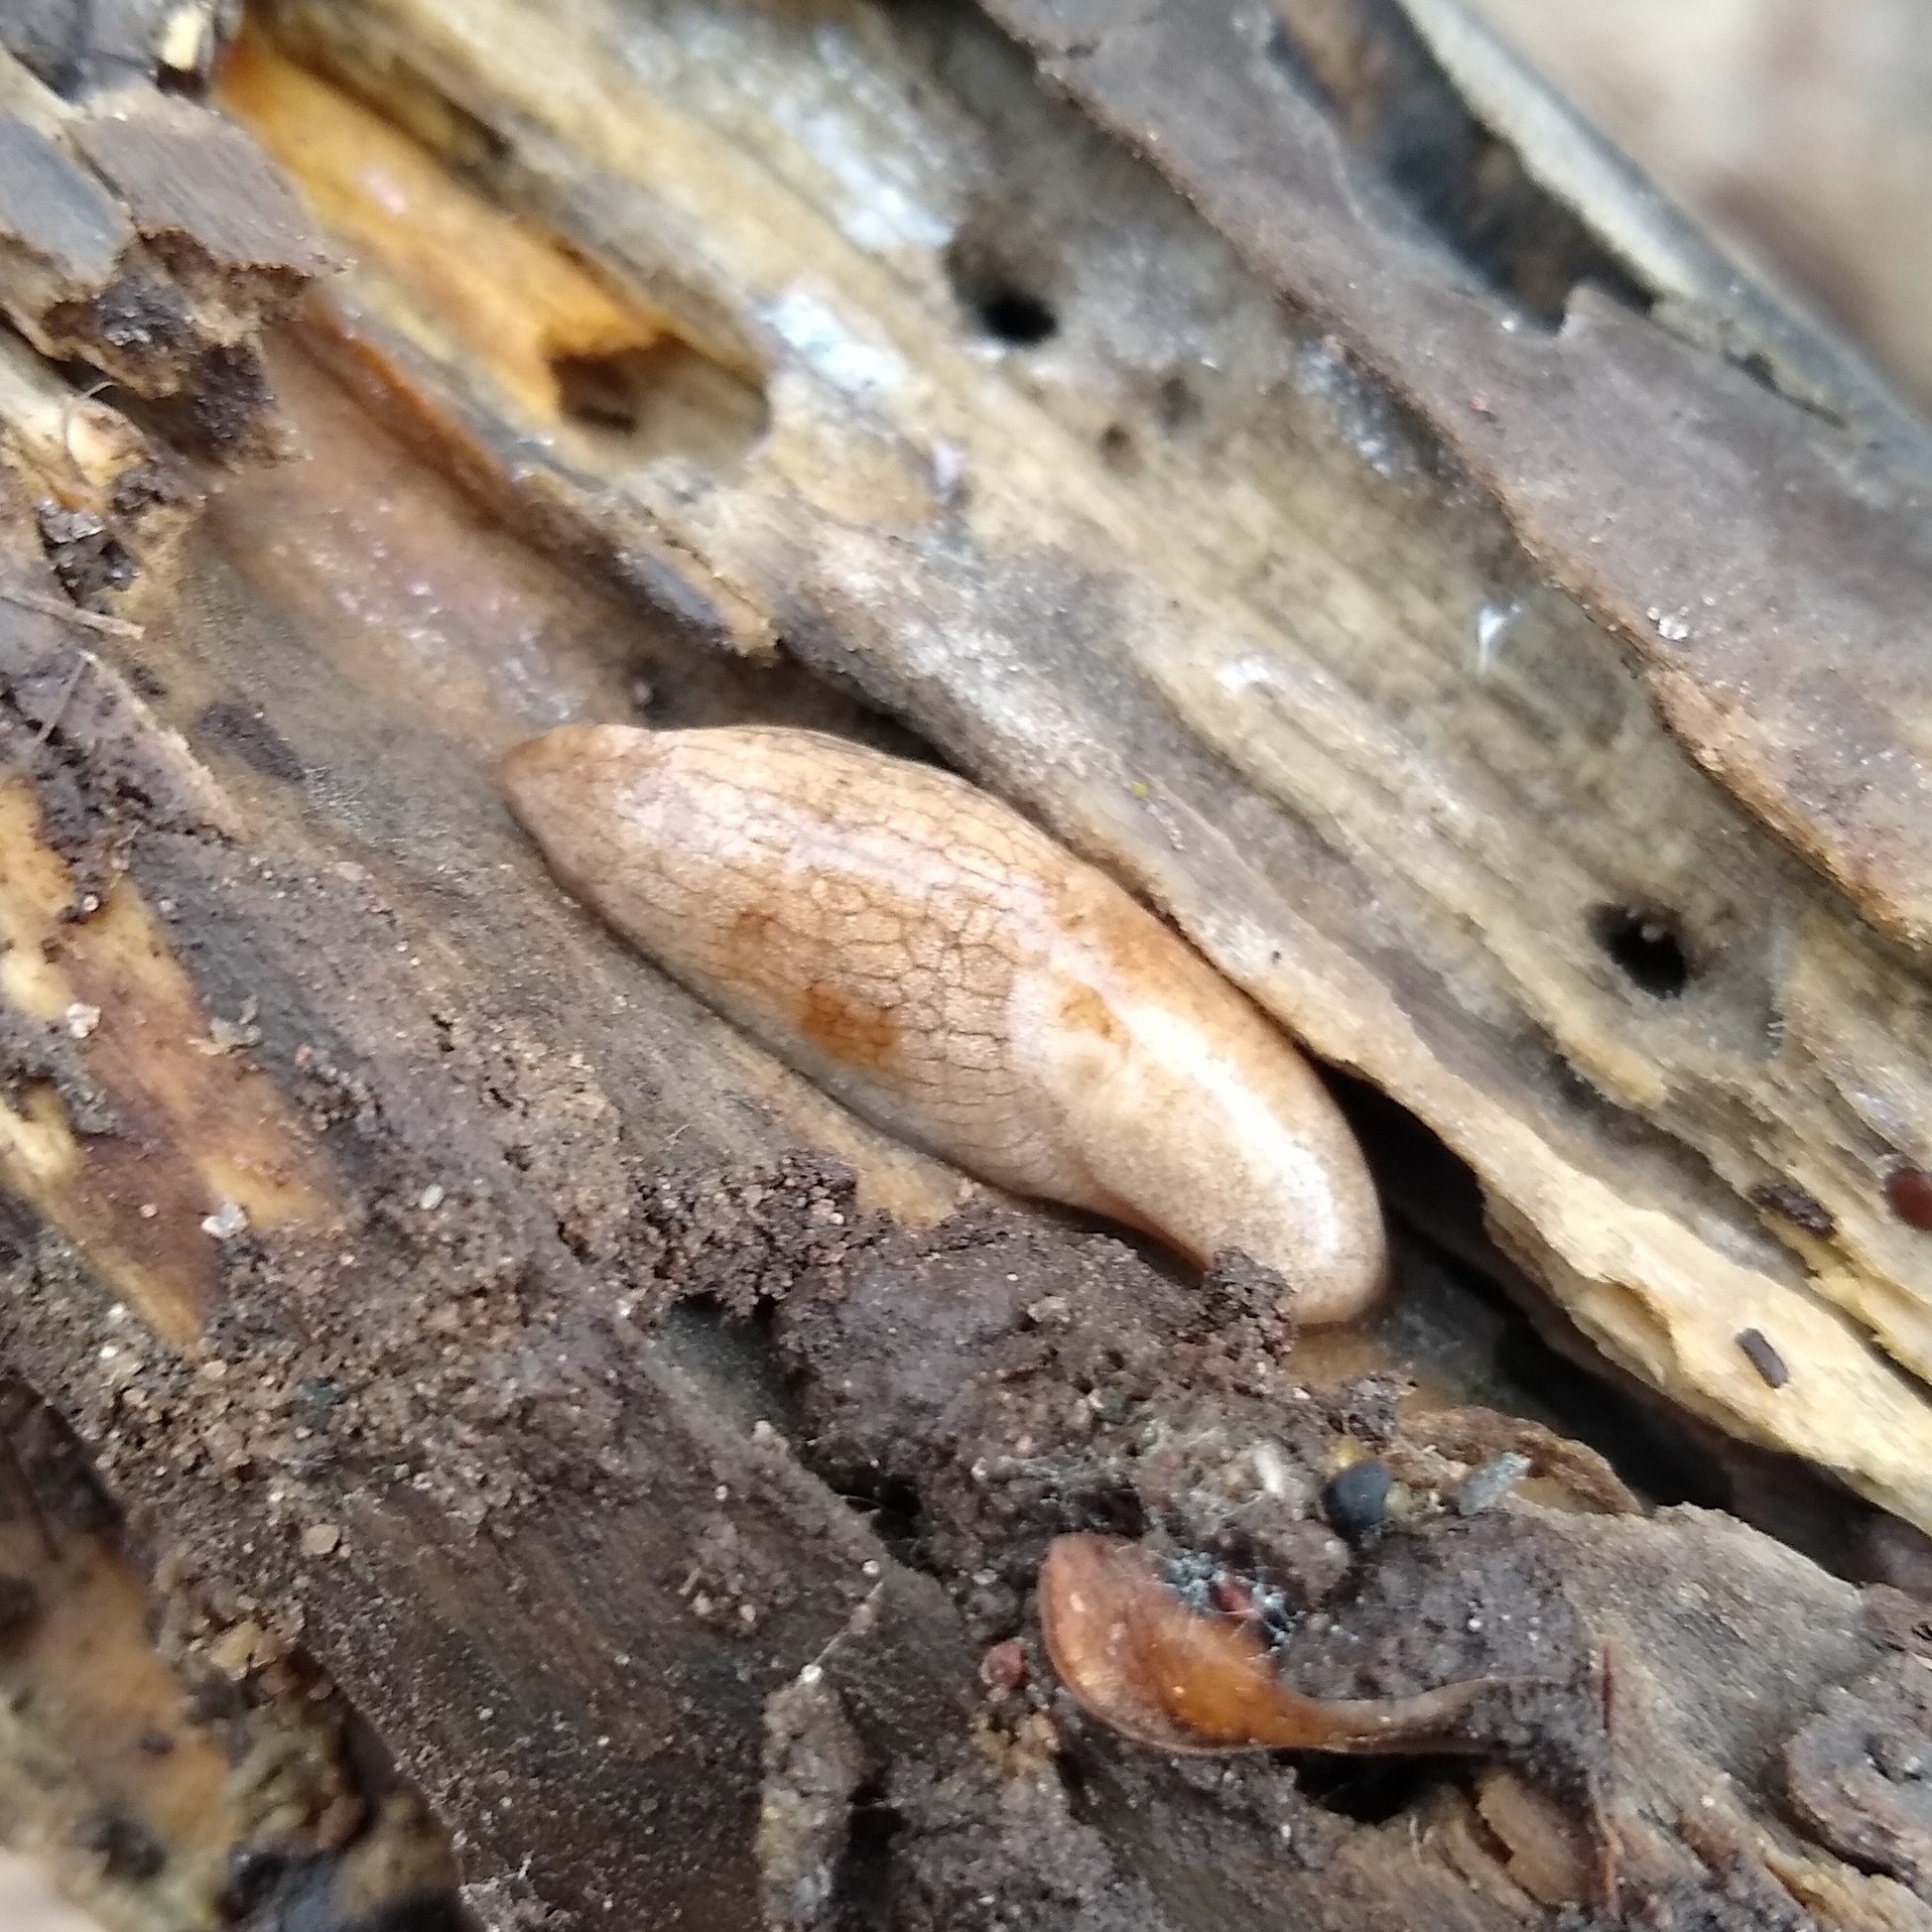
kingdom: Animalia
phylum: Mollusca
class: Gastropoda
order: Stylommatophora
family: Agriolimacidae
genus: Deroceras
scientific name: Deroceras reticulatum
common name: Gray field slug
